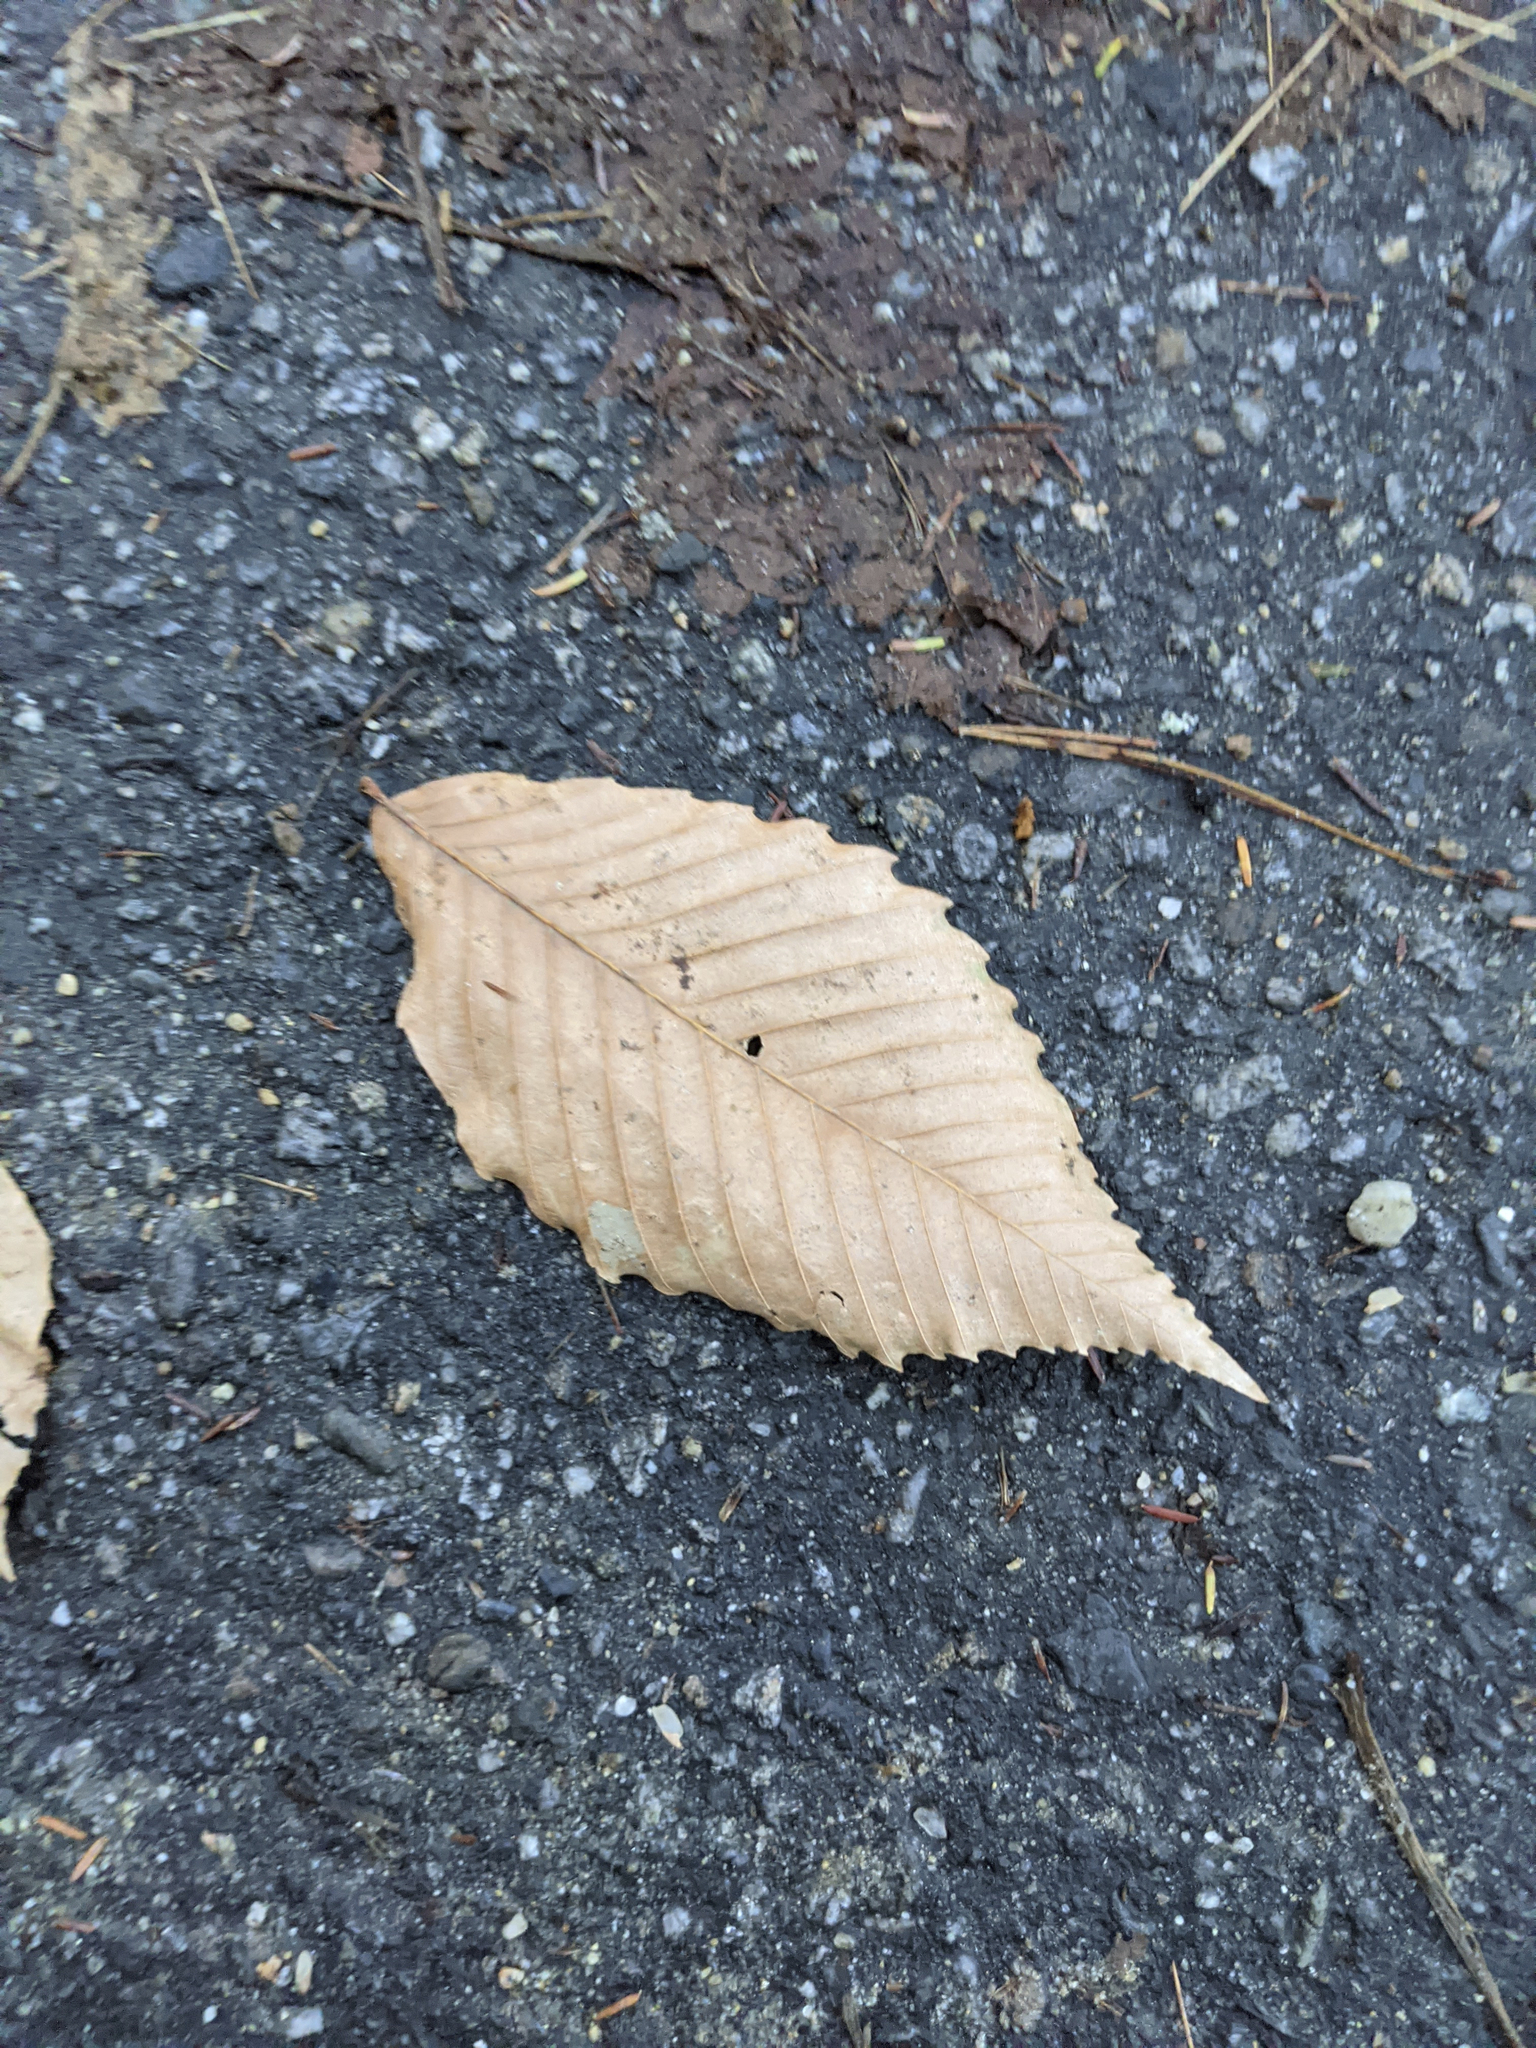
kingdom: Plantae
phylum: Tracheophyta
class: Magnoliopsida
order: Fagales
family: Fagaceae
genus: Fagus
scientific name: Fagus grandifolia
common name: American beech
